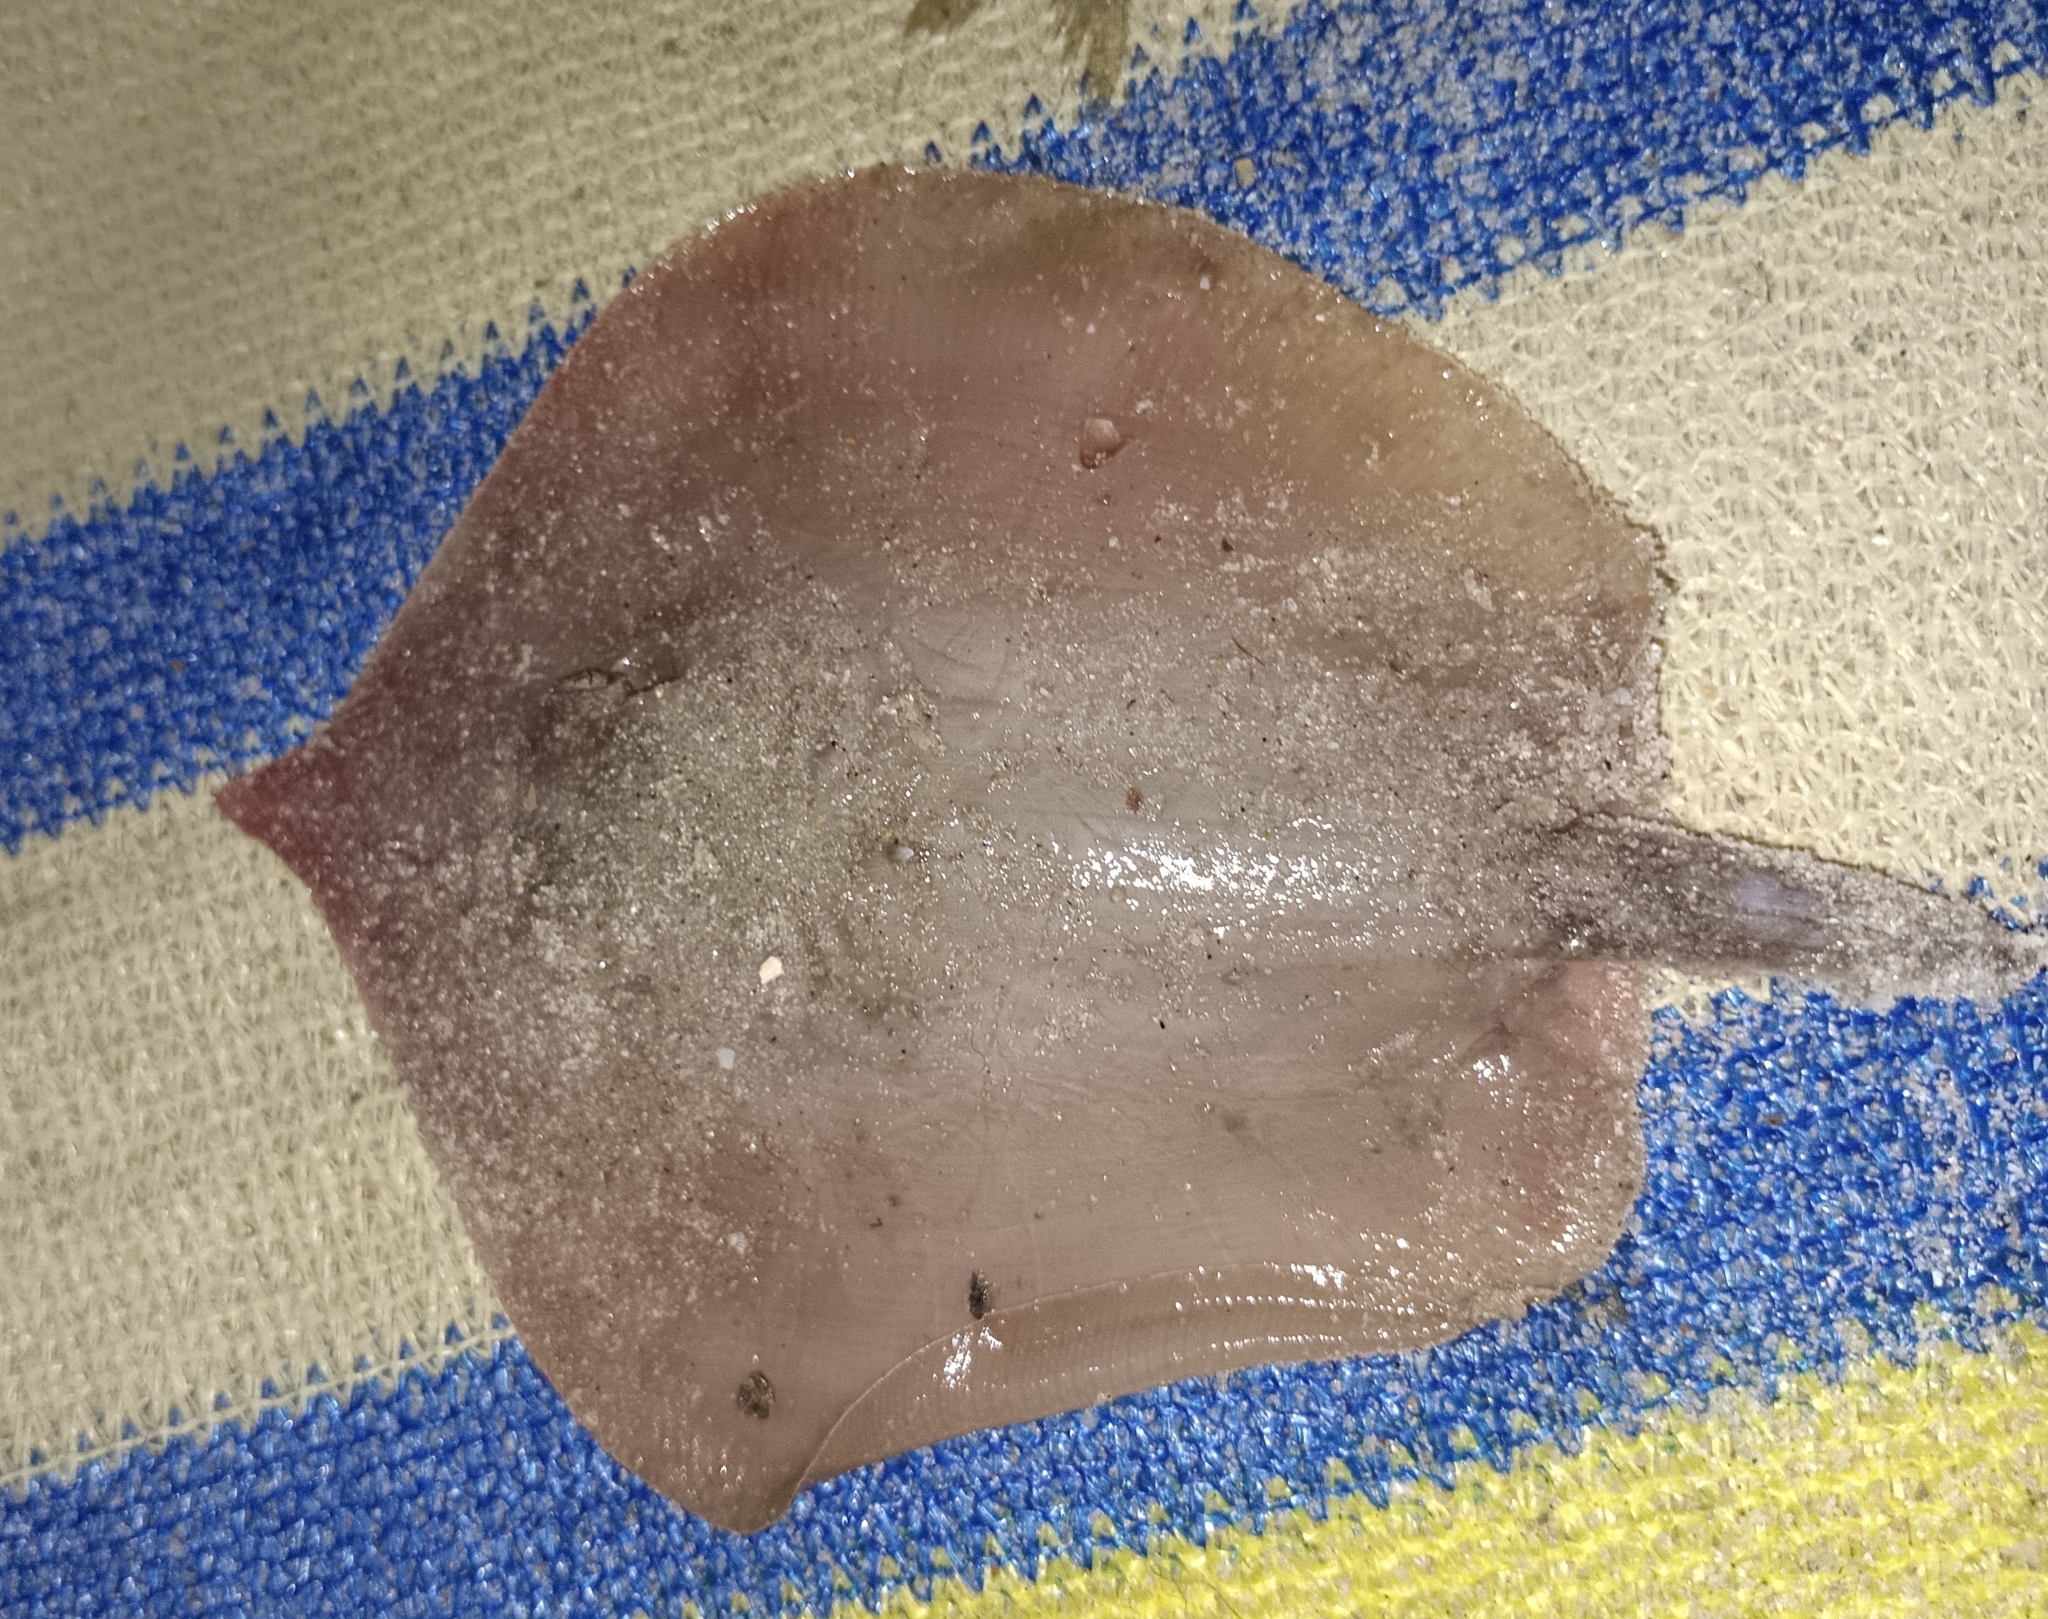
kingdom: Animalia
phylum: Chordata
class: Elasmobranchii
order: Myliobatiformes
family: Dasyatidae
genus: Brevitrygon
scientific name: Brevitrygon imbricata
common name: Scaly whipray
